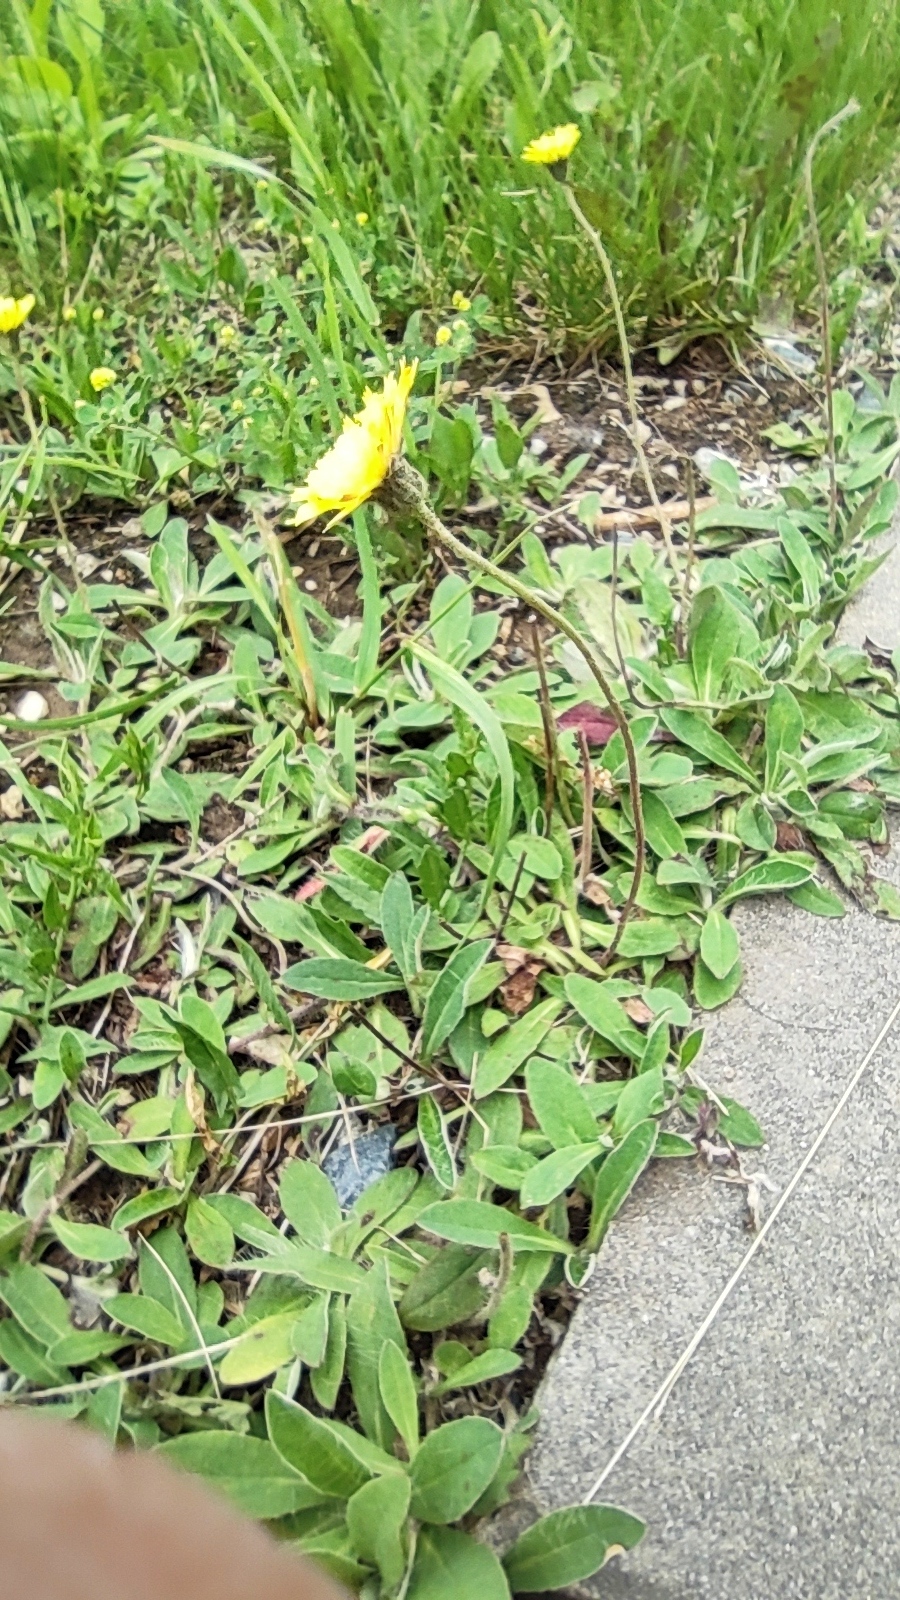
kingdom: Plantae
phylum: Tracheophyta
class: Magnoliopsida
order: Asterales
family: Asteraceae
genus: Pilosella
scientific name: Pilosella officinarum
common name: Mouse-ear hawkweed
